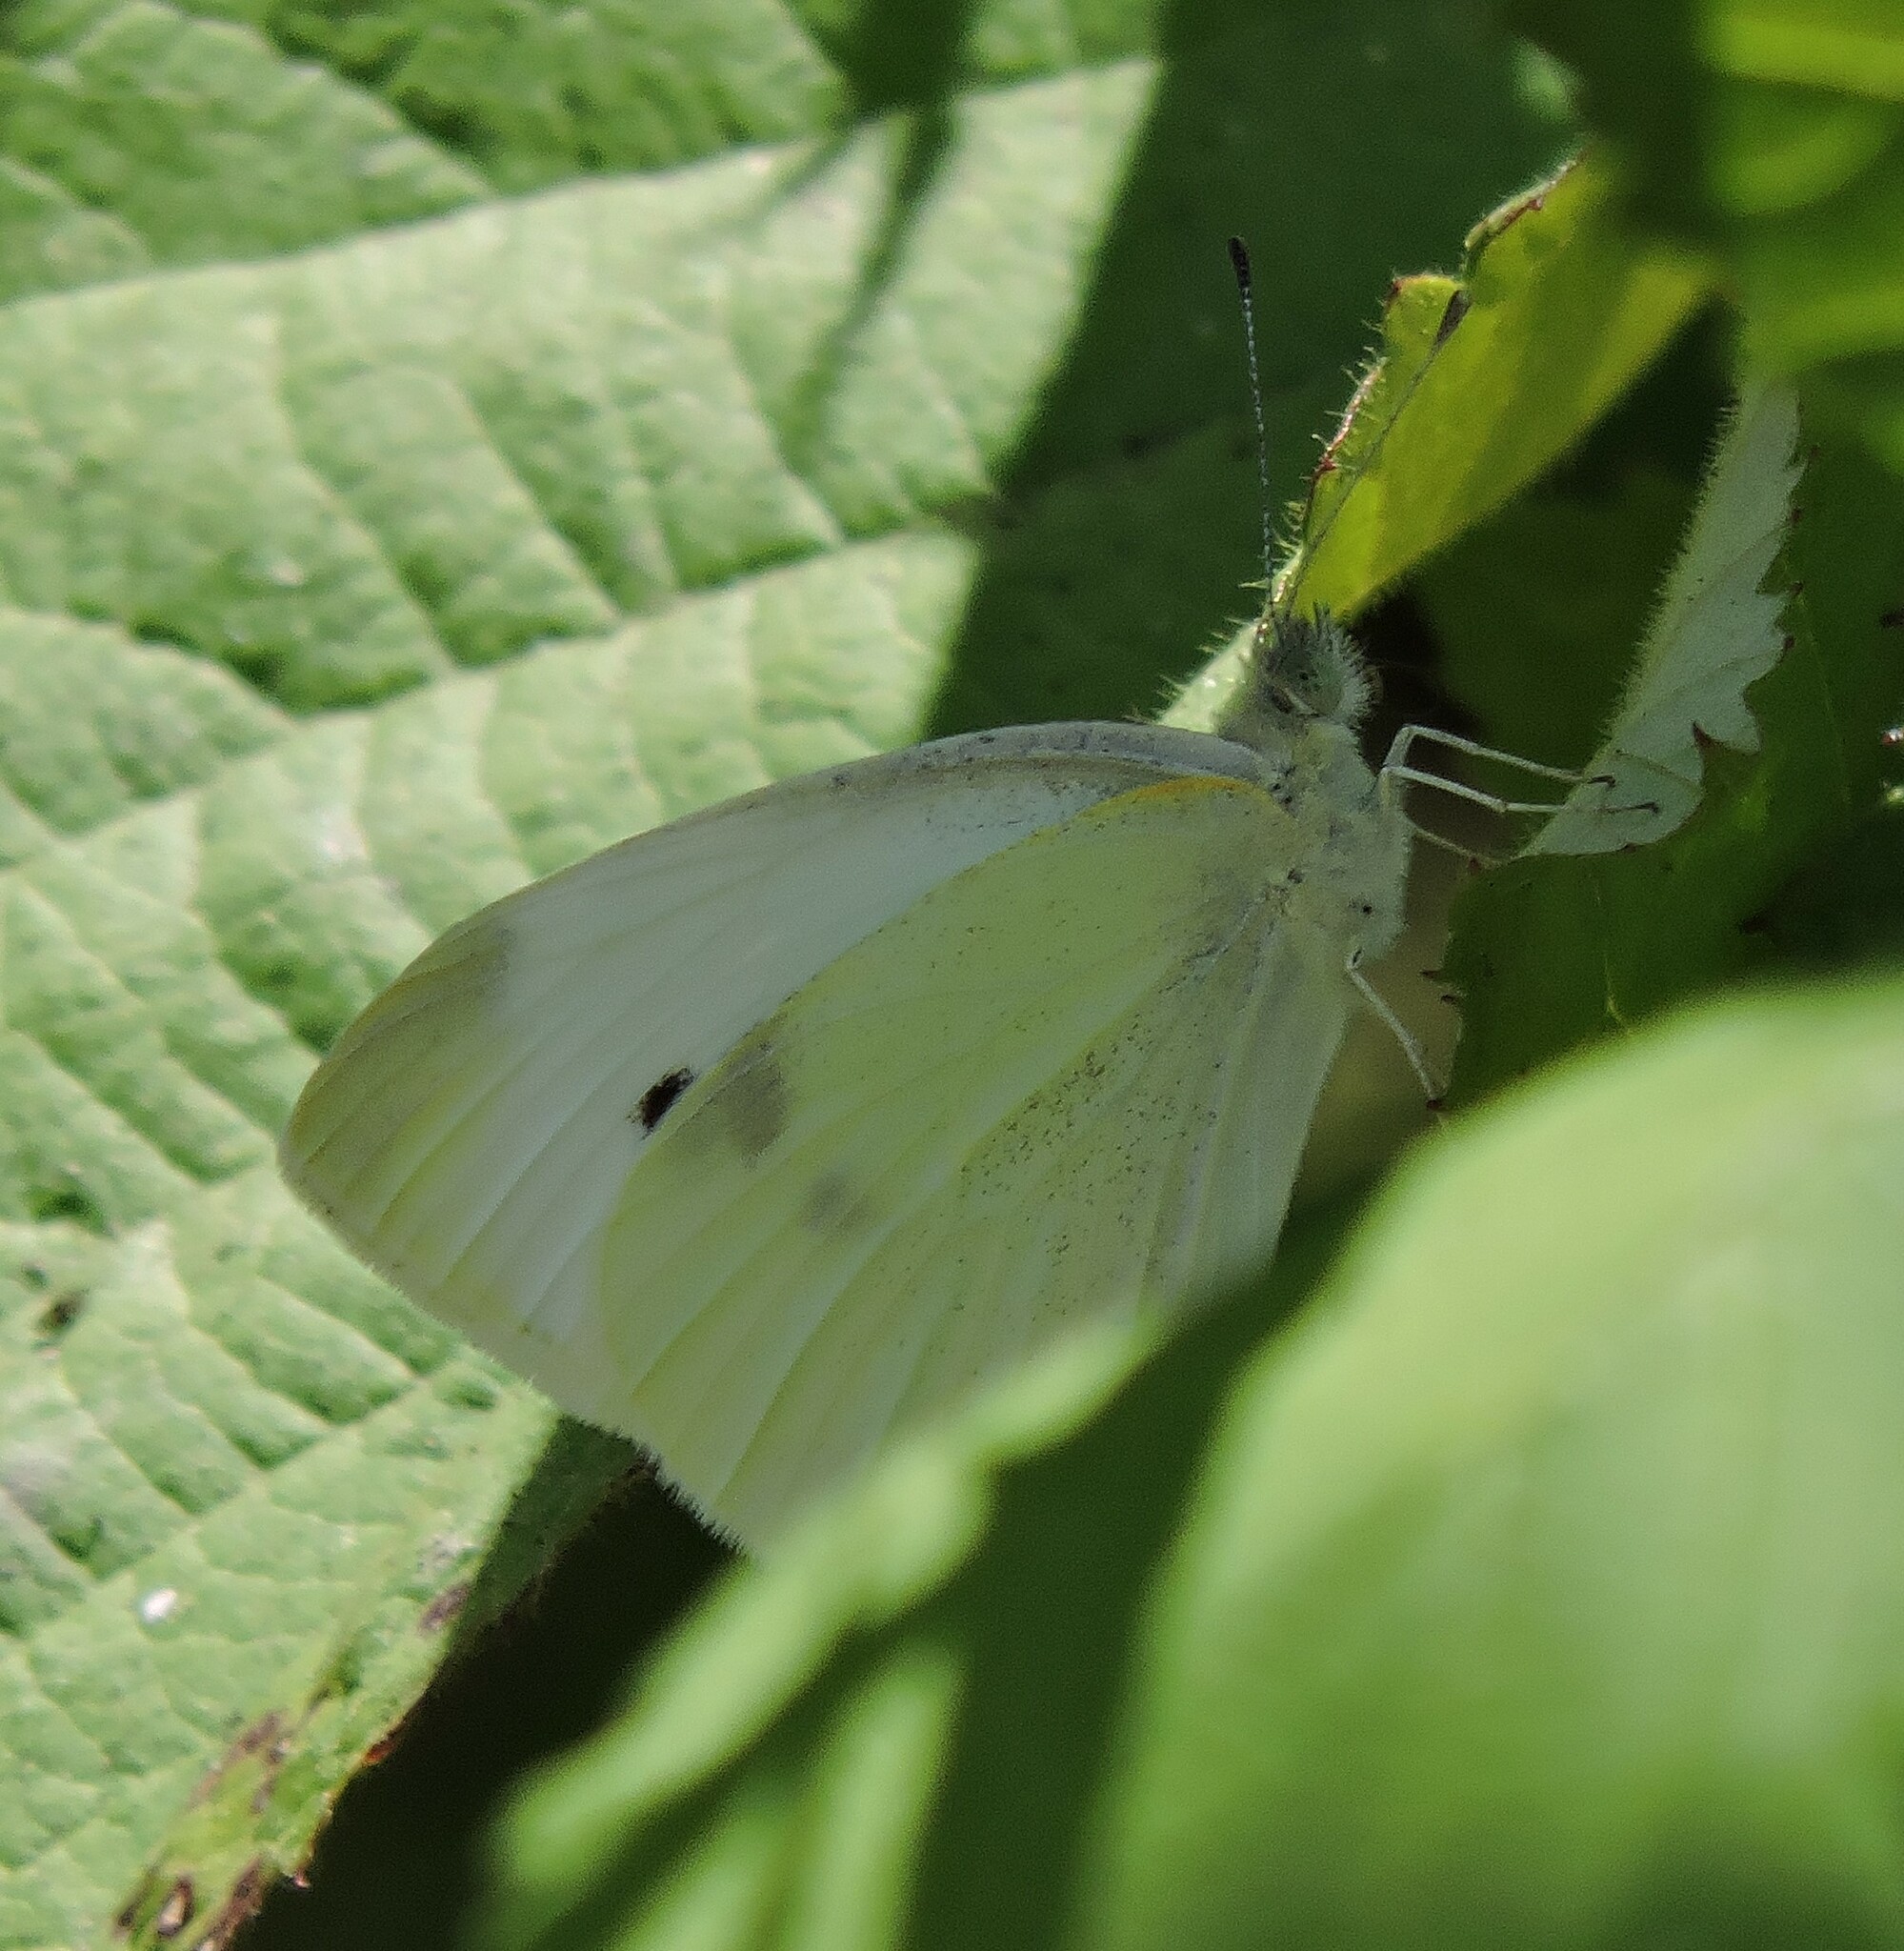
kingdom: Animalia
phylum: Arthropoda
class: Insecta
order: Lepidoptera
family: Pieridae
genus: Pieris
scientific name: Pieris rapae
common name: Small white
